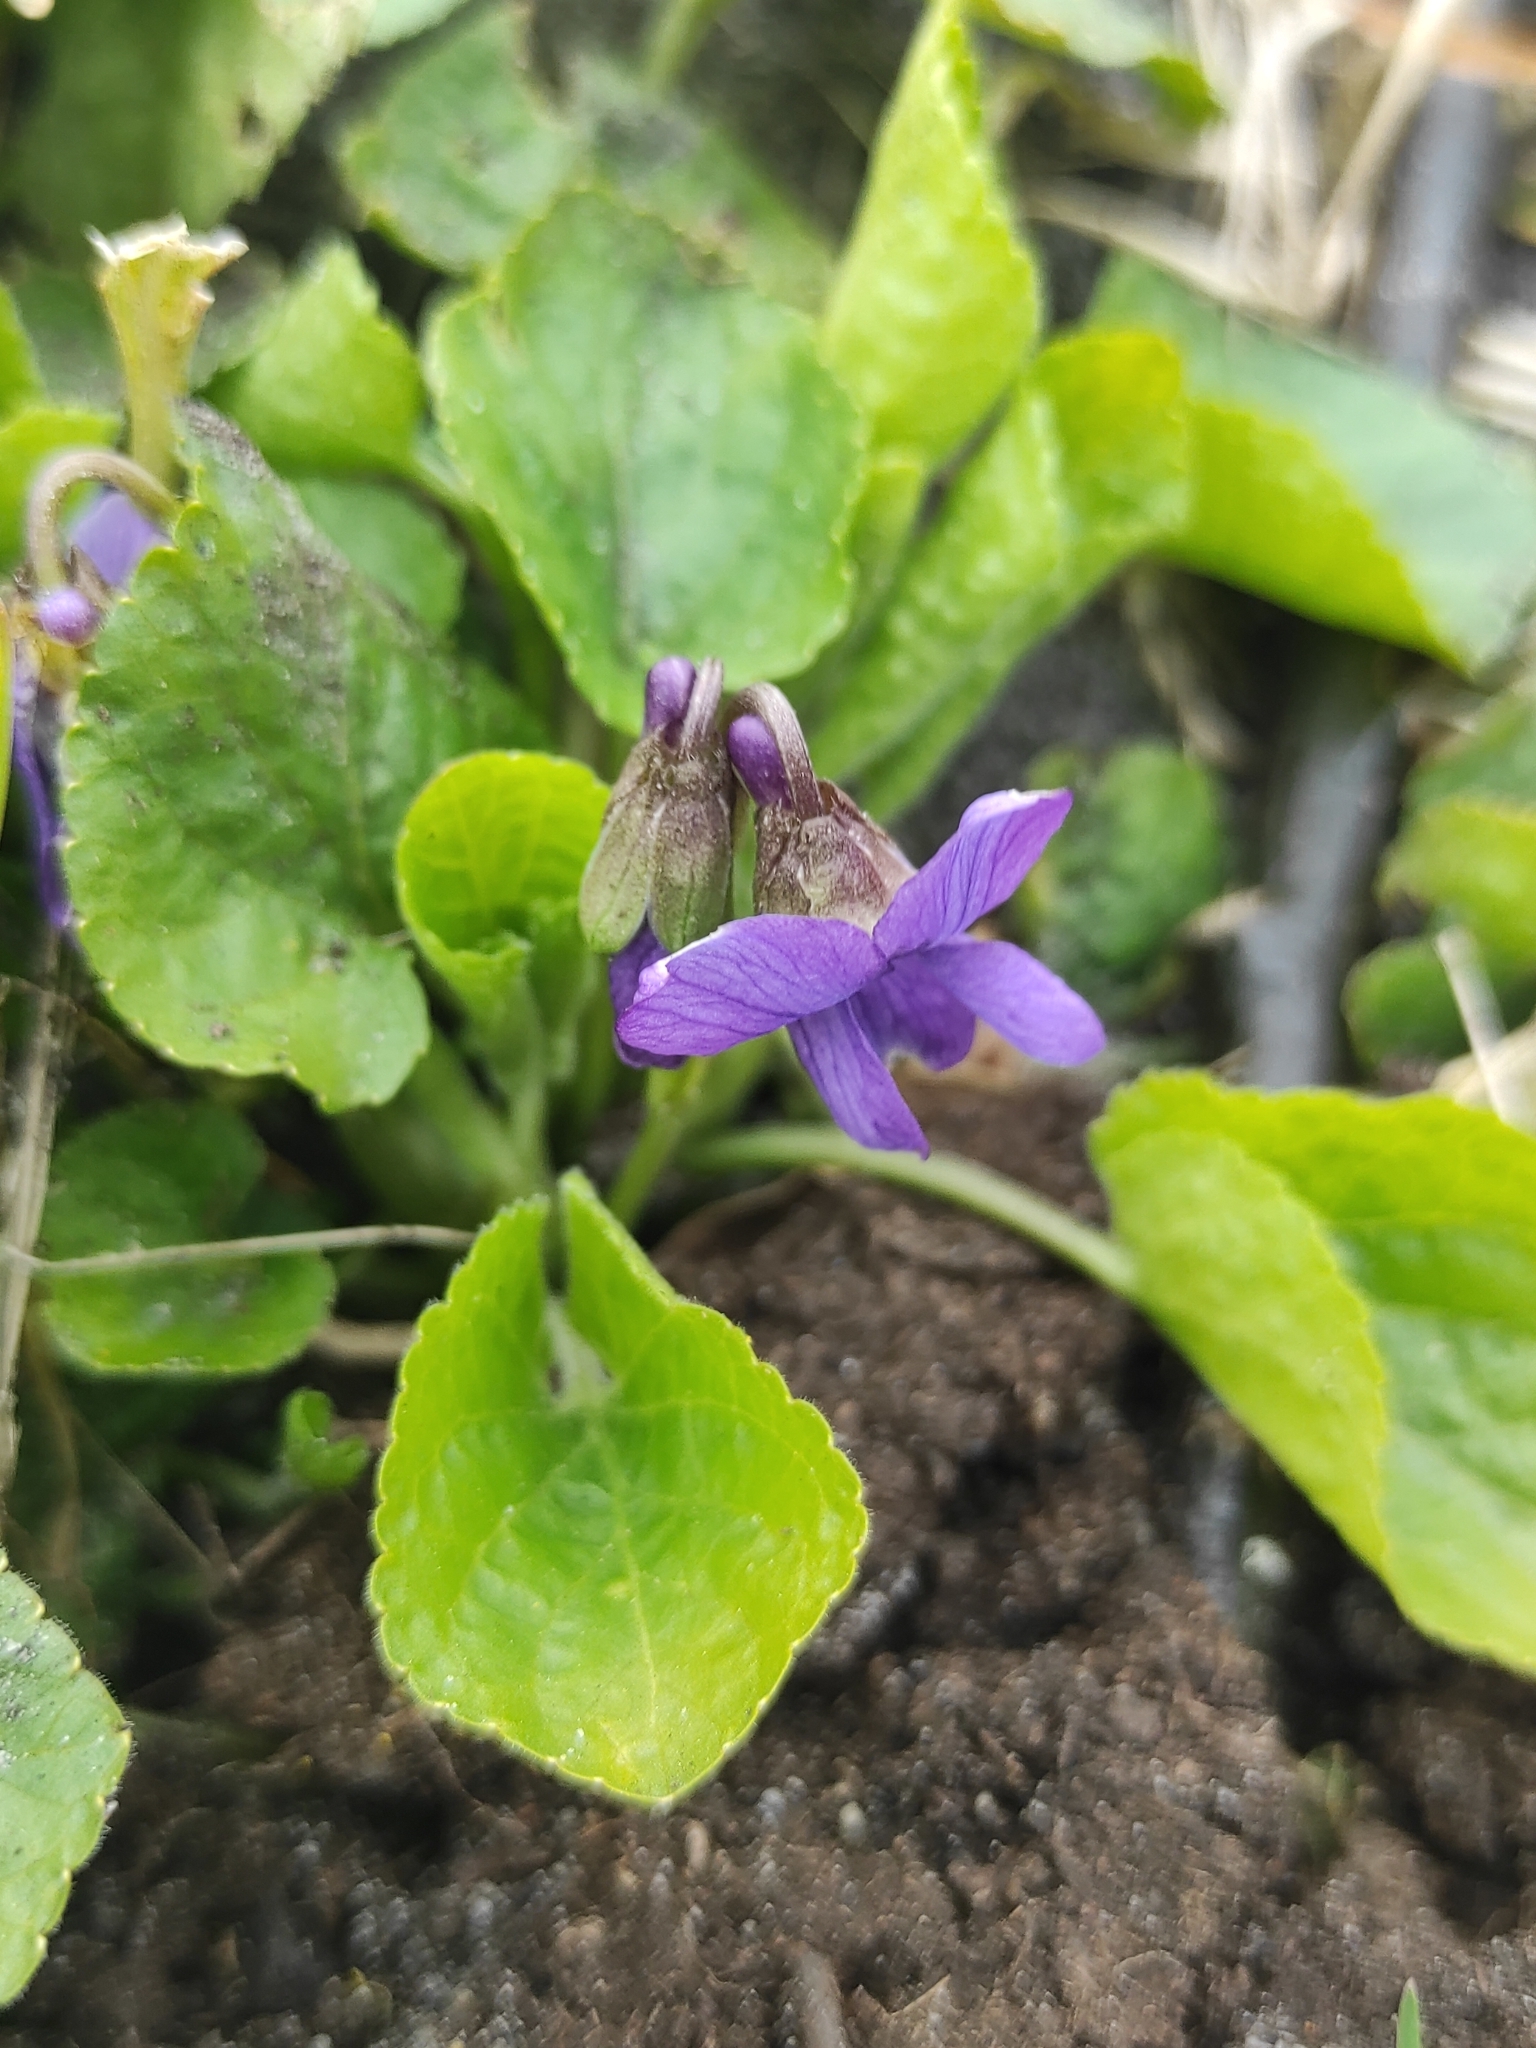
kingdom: Plantae
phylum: Tracheophyta
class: Magnoliopsida
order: Malpighiales
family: Violaceae
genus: Viola
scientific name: Viola odorata
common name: Sweet violet
